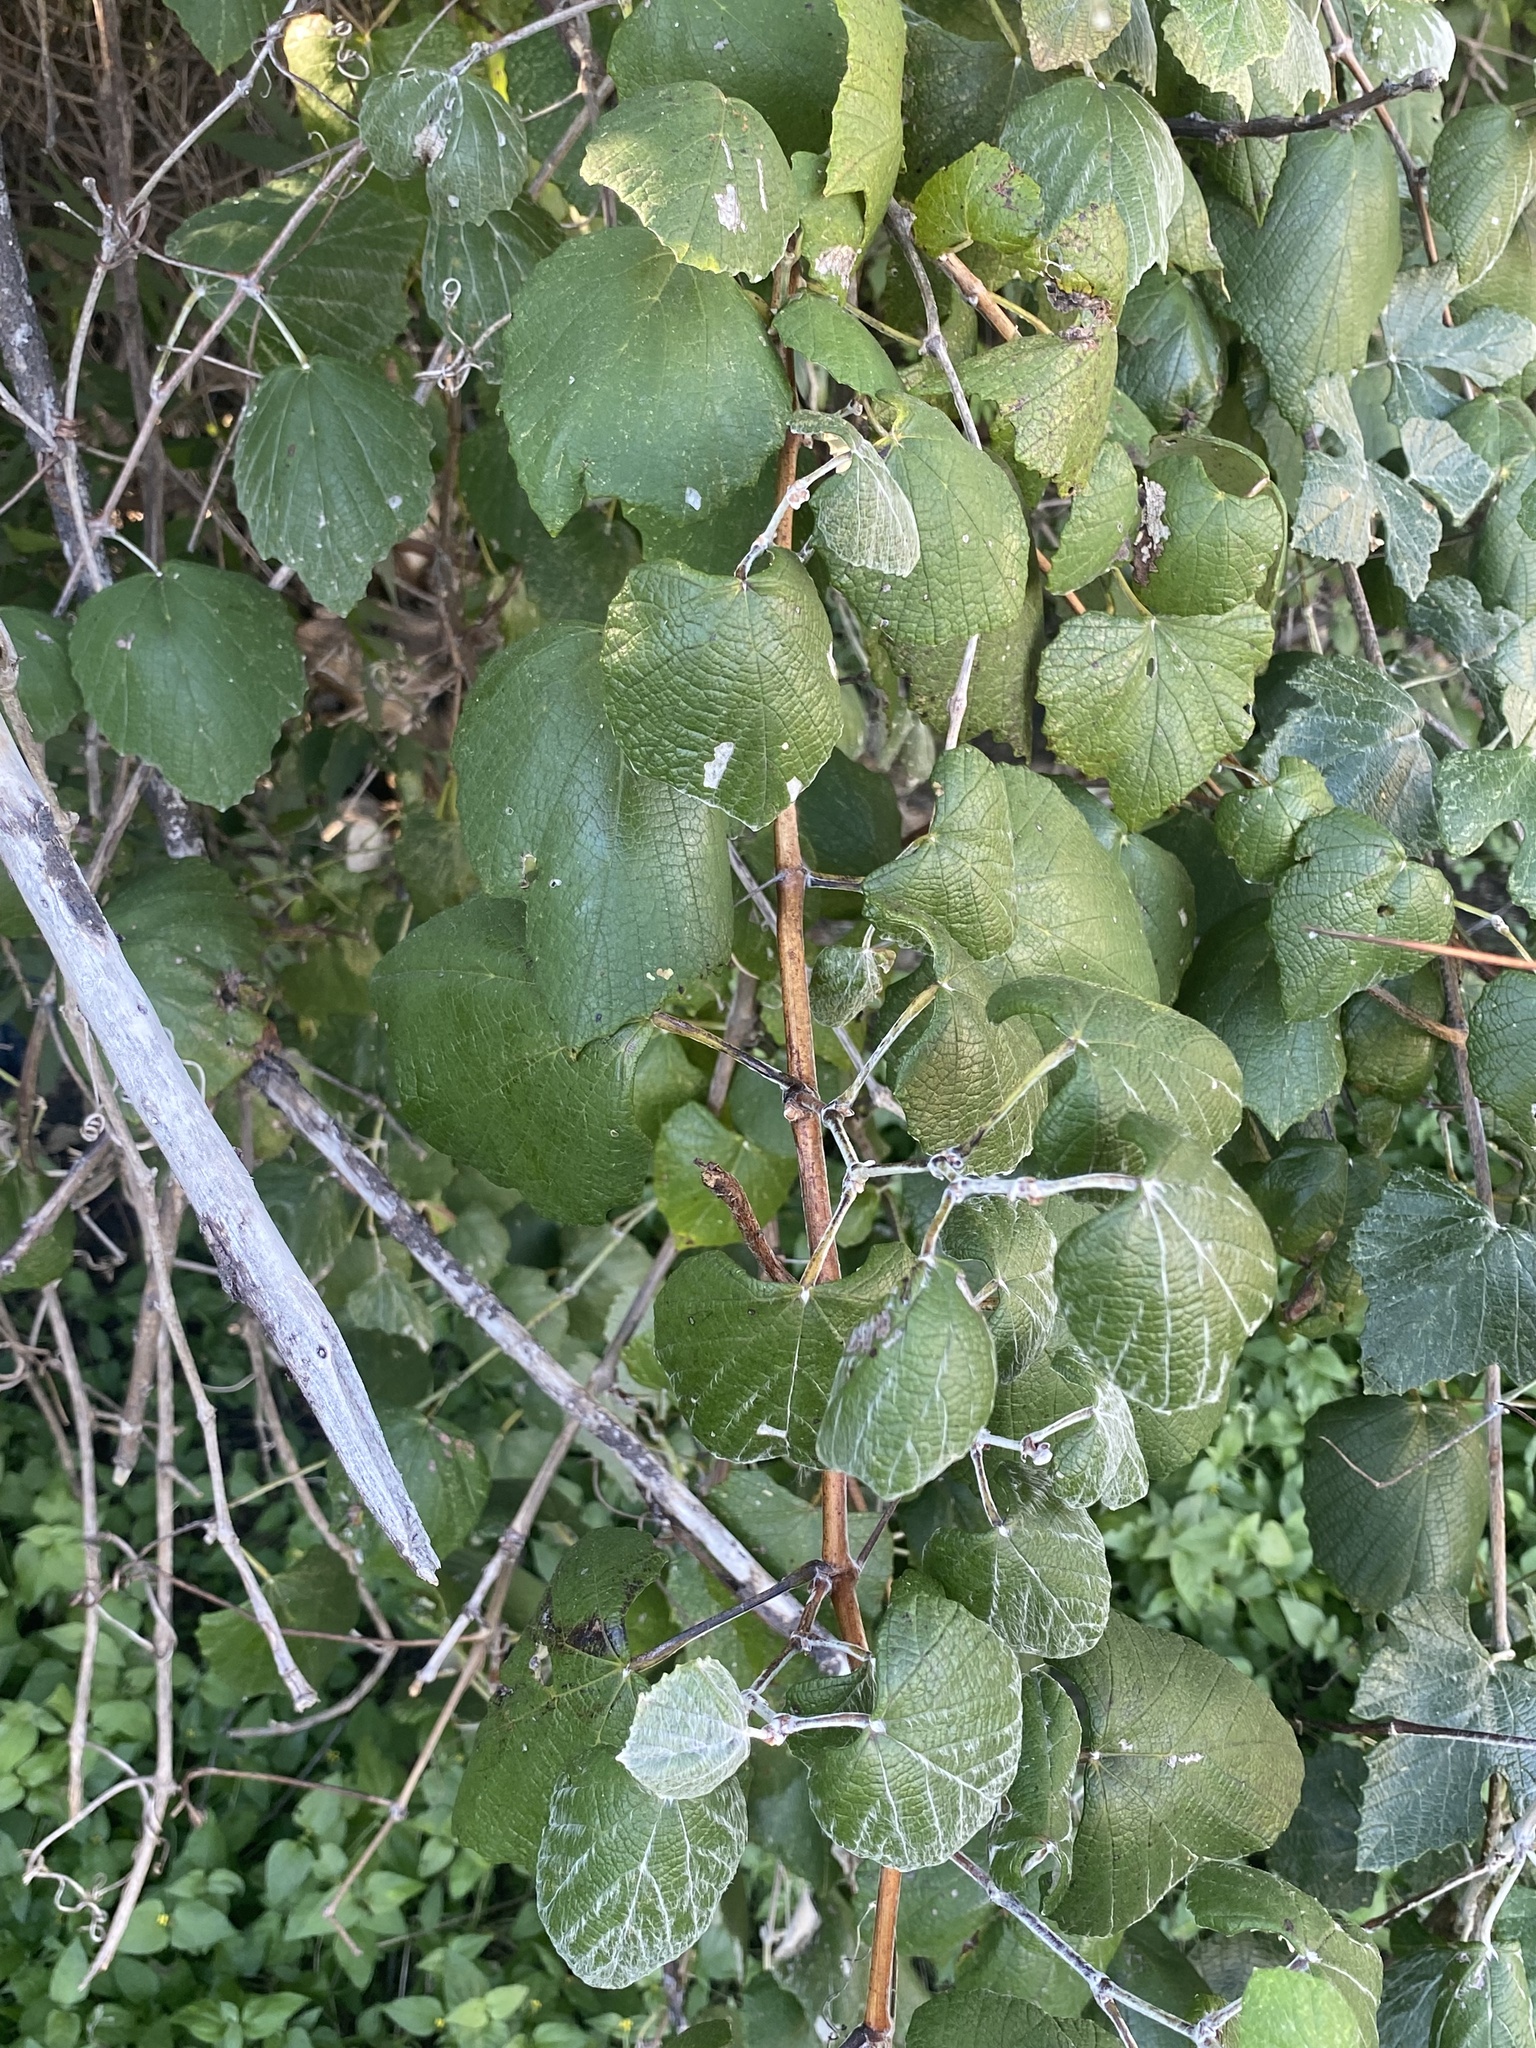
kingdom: Plantae
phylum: Tracheophyta
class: Magnoliopsida
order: Vitales
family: Vitaceae
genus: Vitis
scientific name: Vitis mustangensis
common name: Mustang grape
